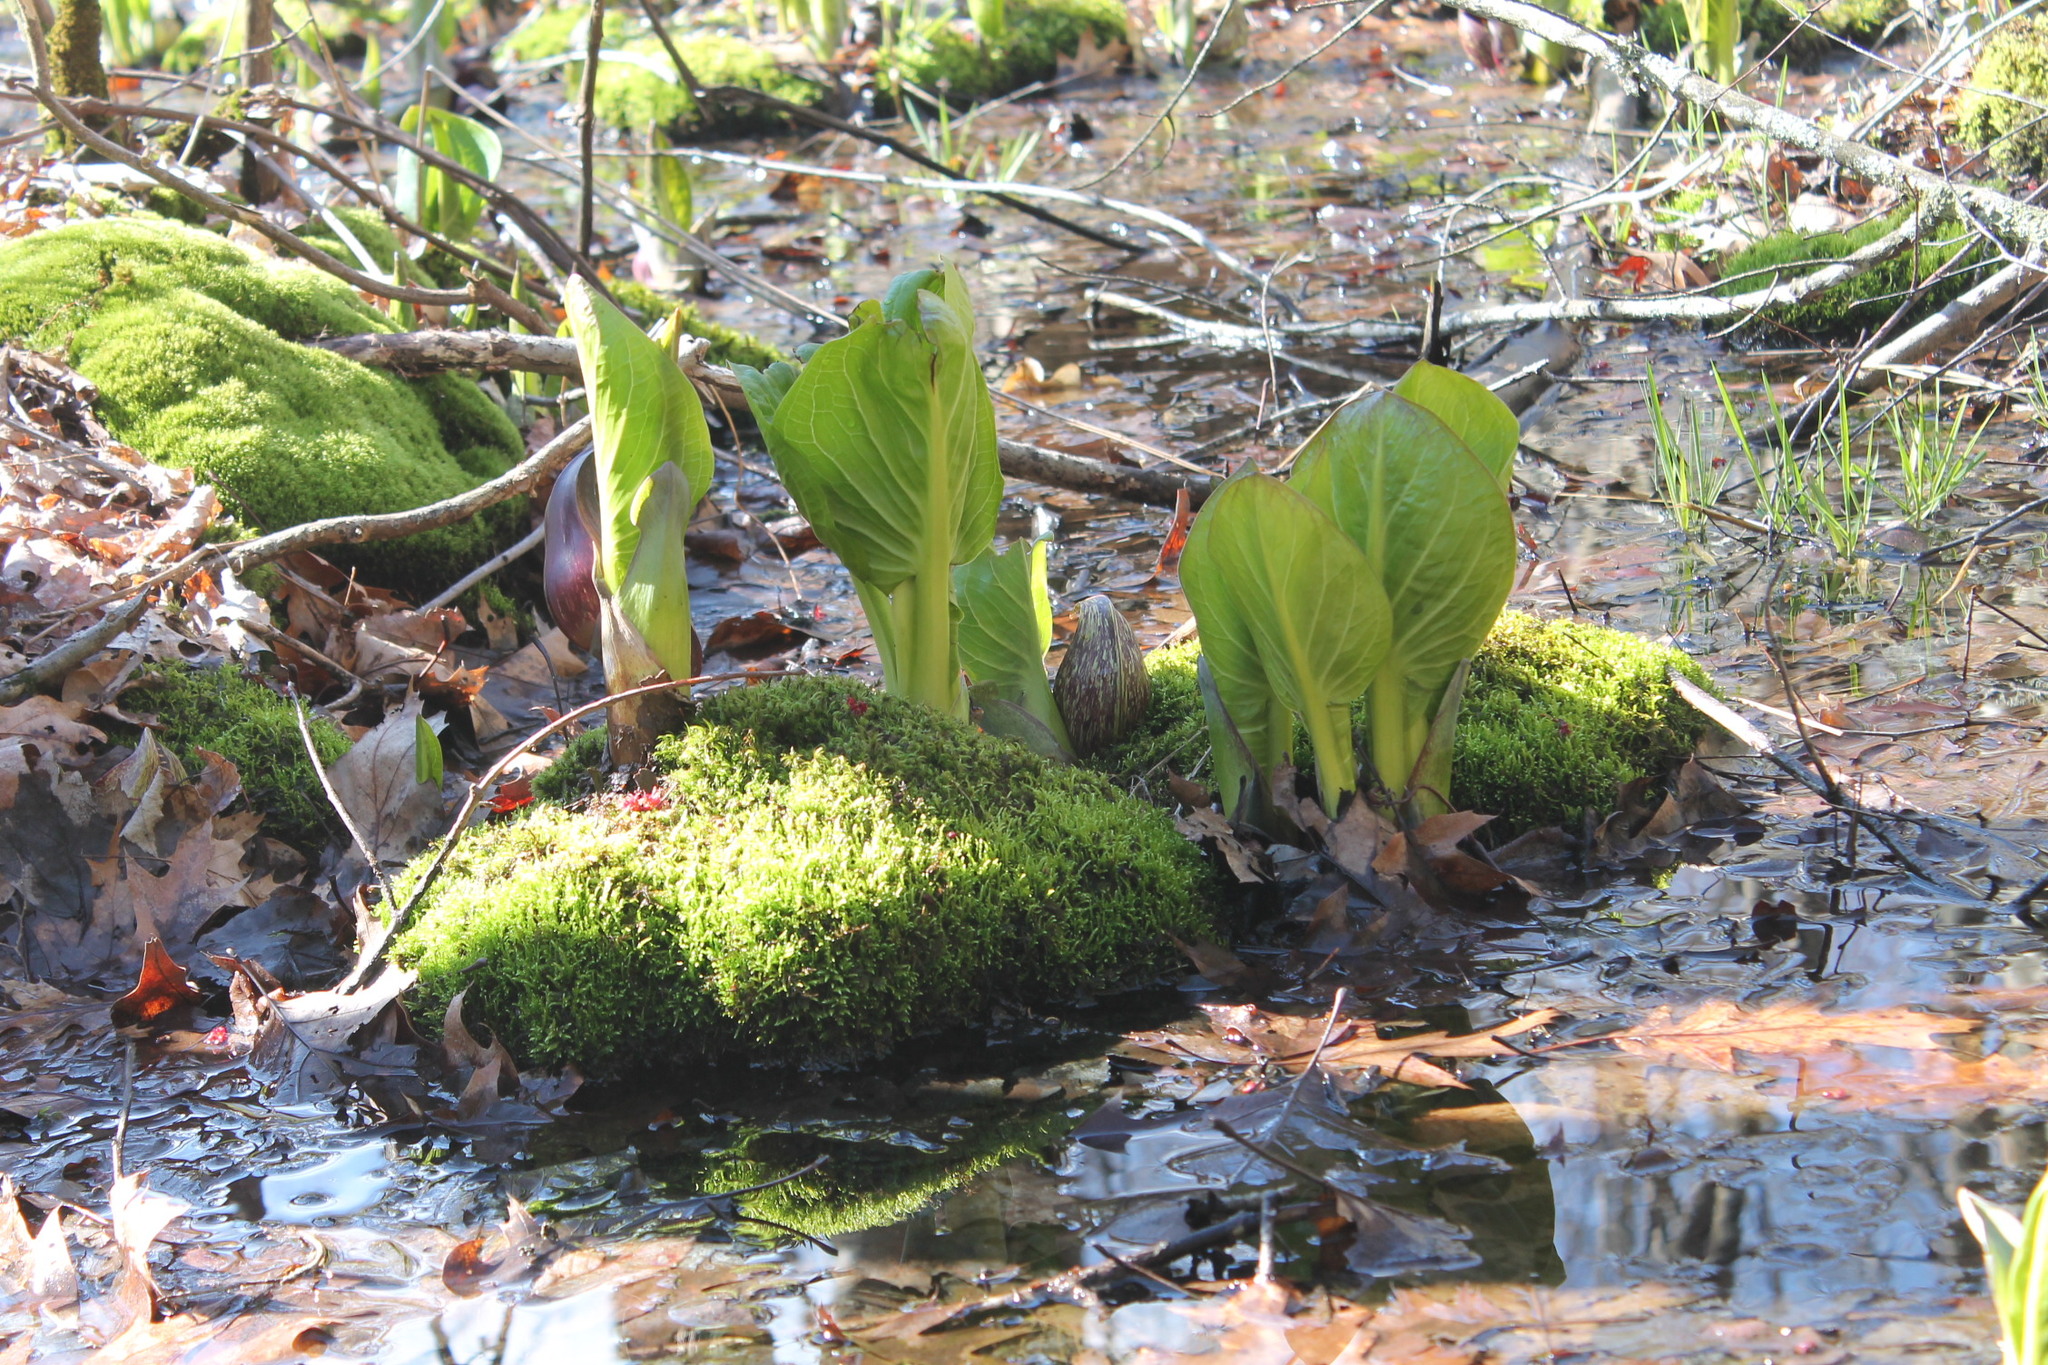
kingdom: Plantae
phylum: Tracheophyta
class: Liliopsida
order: Alismatales
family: Araceae
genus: Symplocarpus
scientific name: Symplocarpus foetidus
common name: Eastern skunk cabbage
